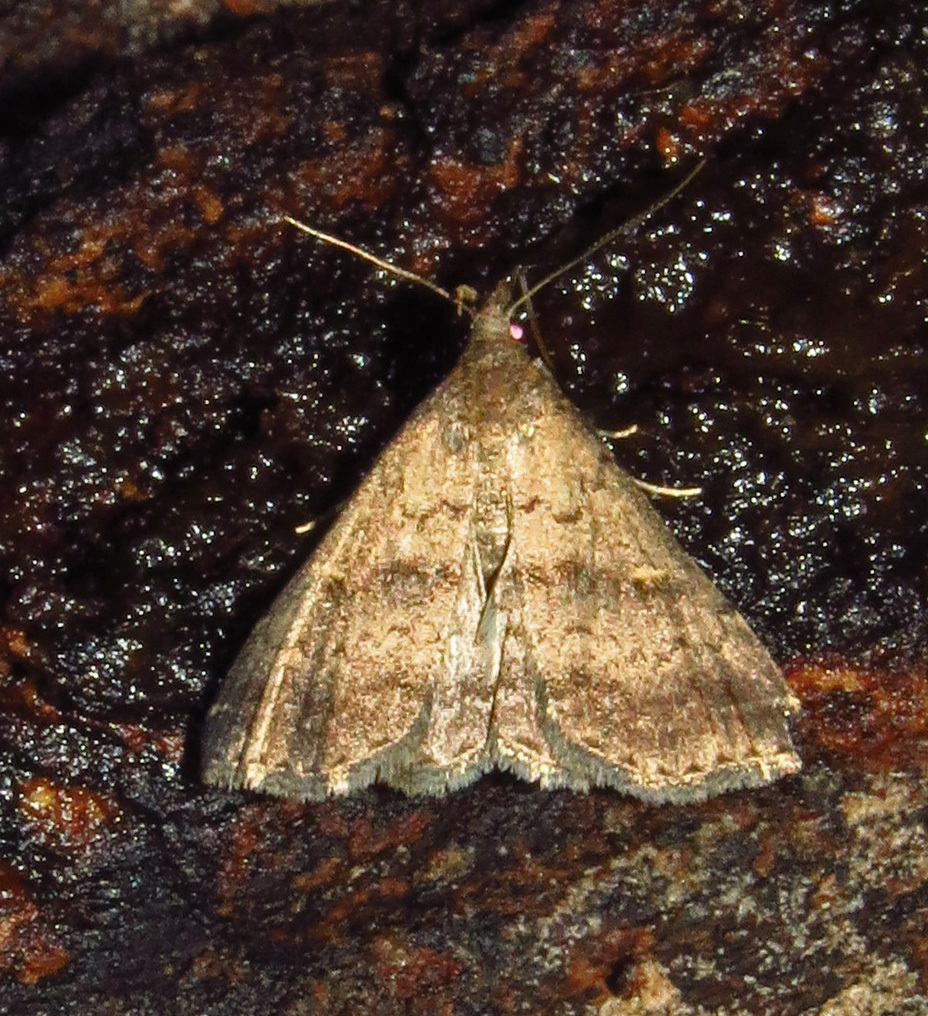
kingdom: Animalia
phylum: Arthropoda
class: Insecta
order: Lepidoptera
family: Erebidae
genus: Tetanolita
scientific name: Tetanolita floridana
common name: Florida tetanolita moth
